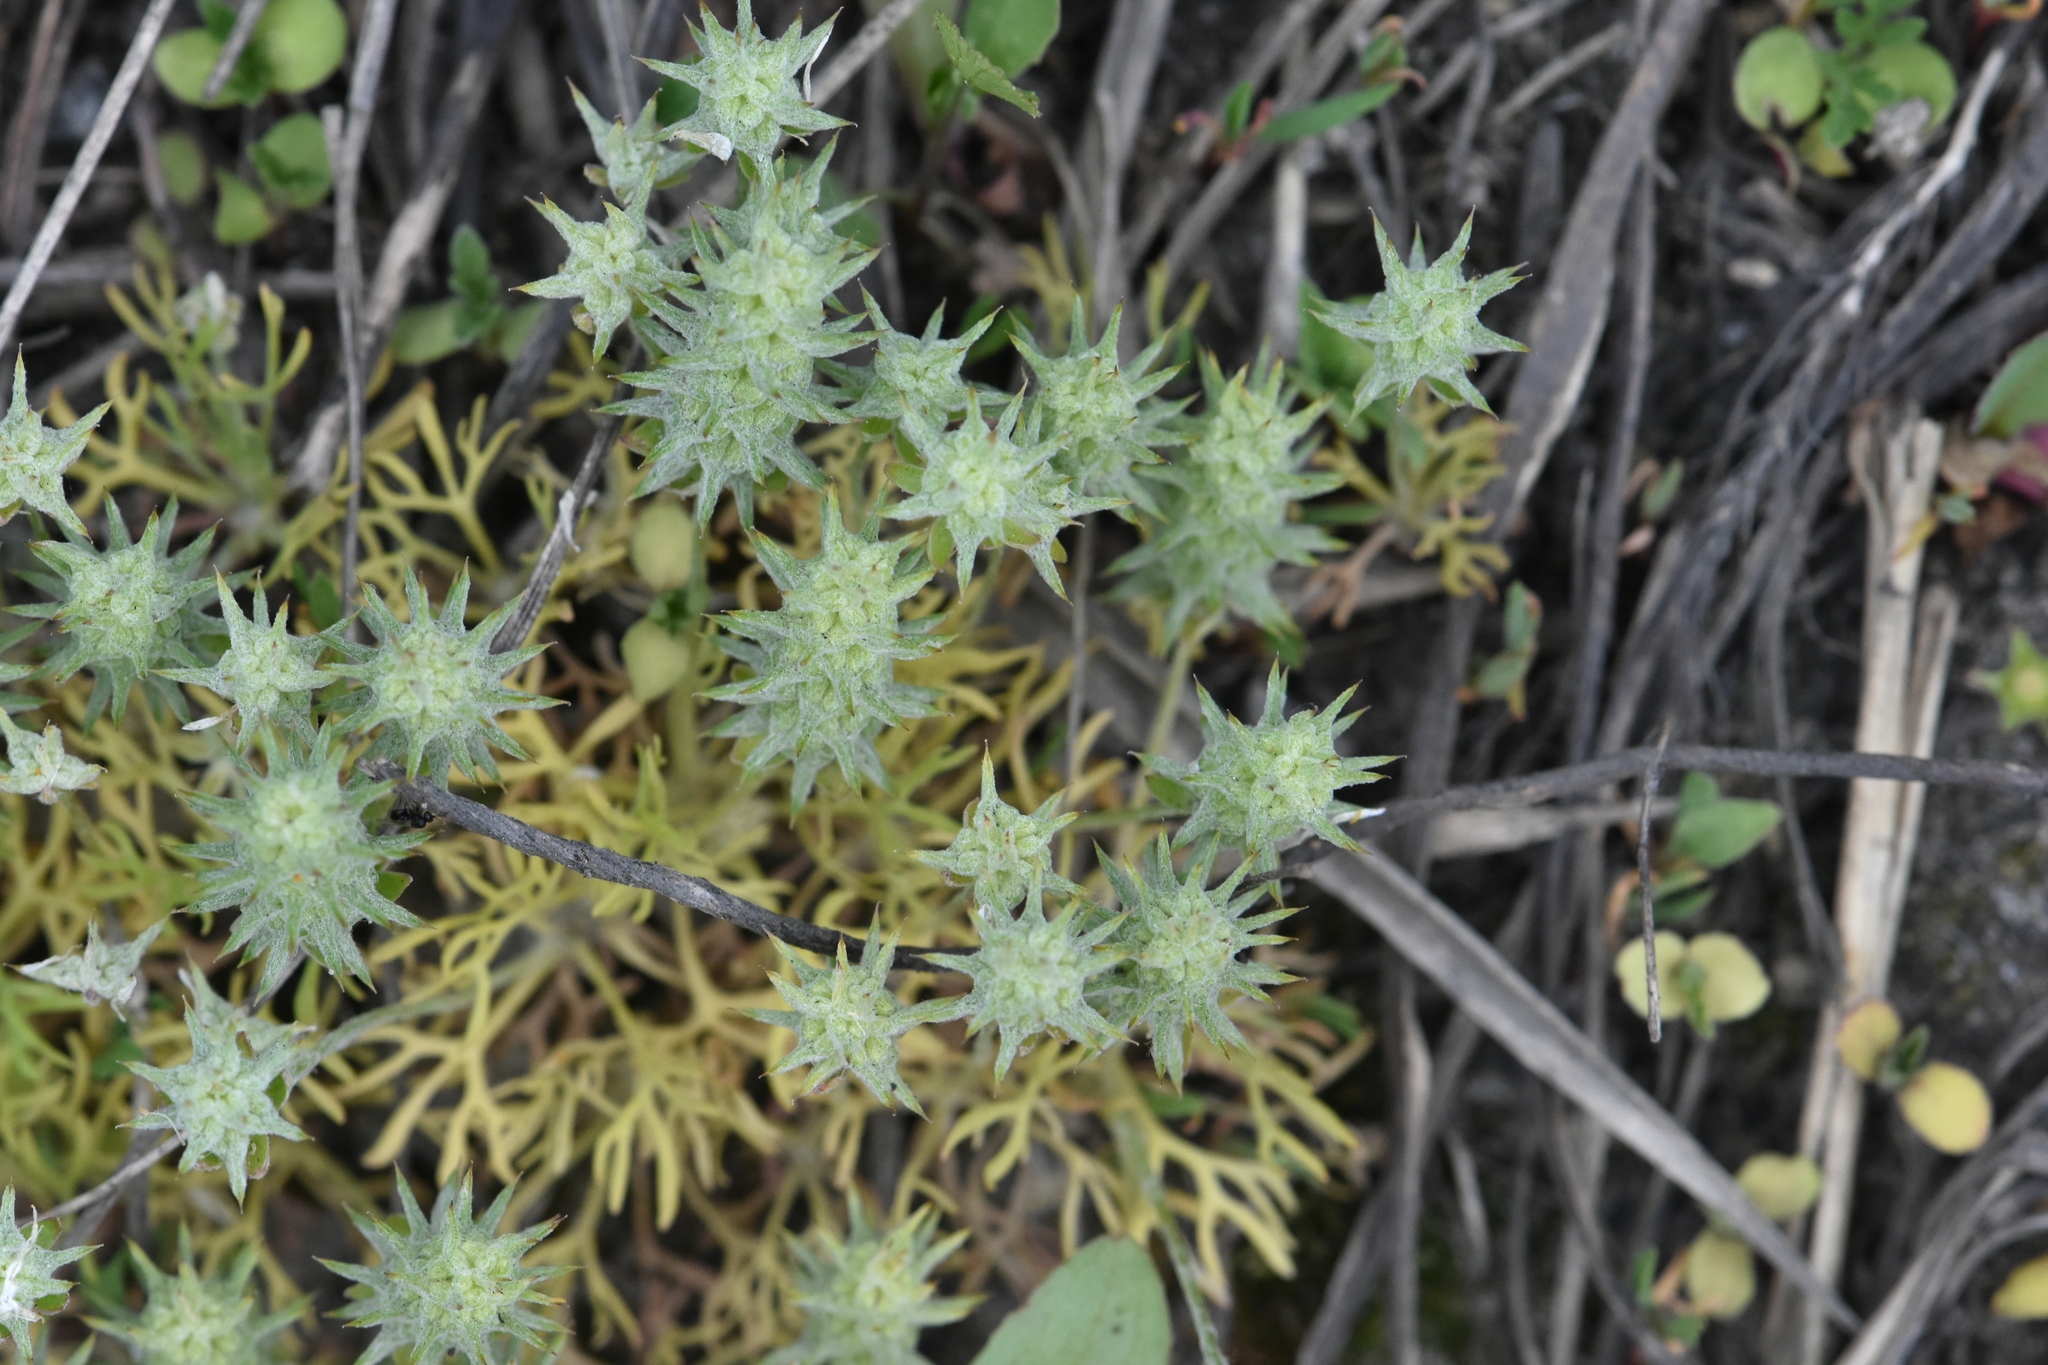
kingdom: Plantae
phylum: Tracheophyta
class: Magnoliopsida
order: Ranunculales
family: Ranunculaceae
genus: Ceratocephala
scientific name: Ceratocephala orthoceras
